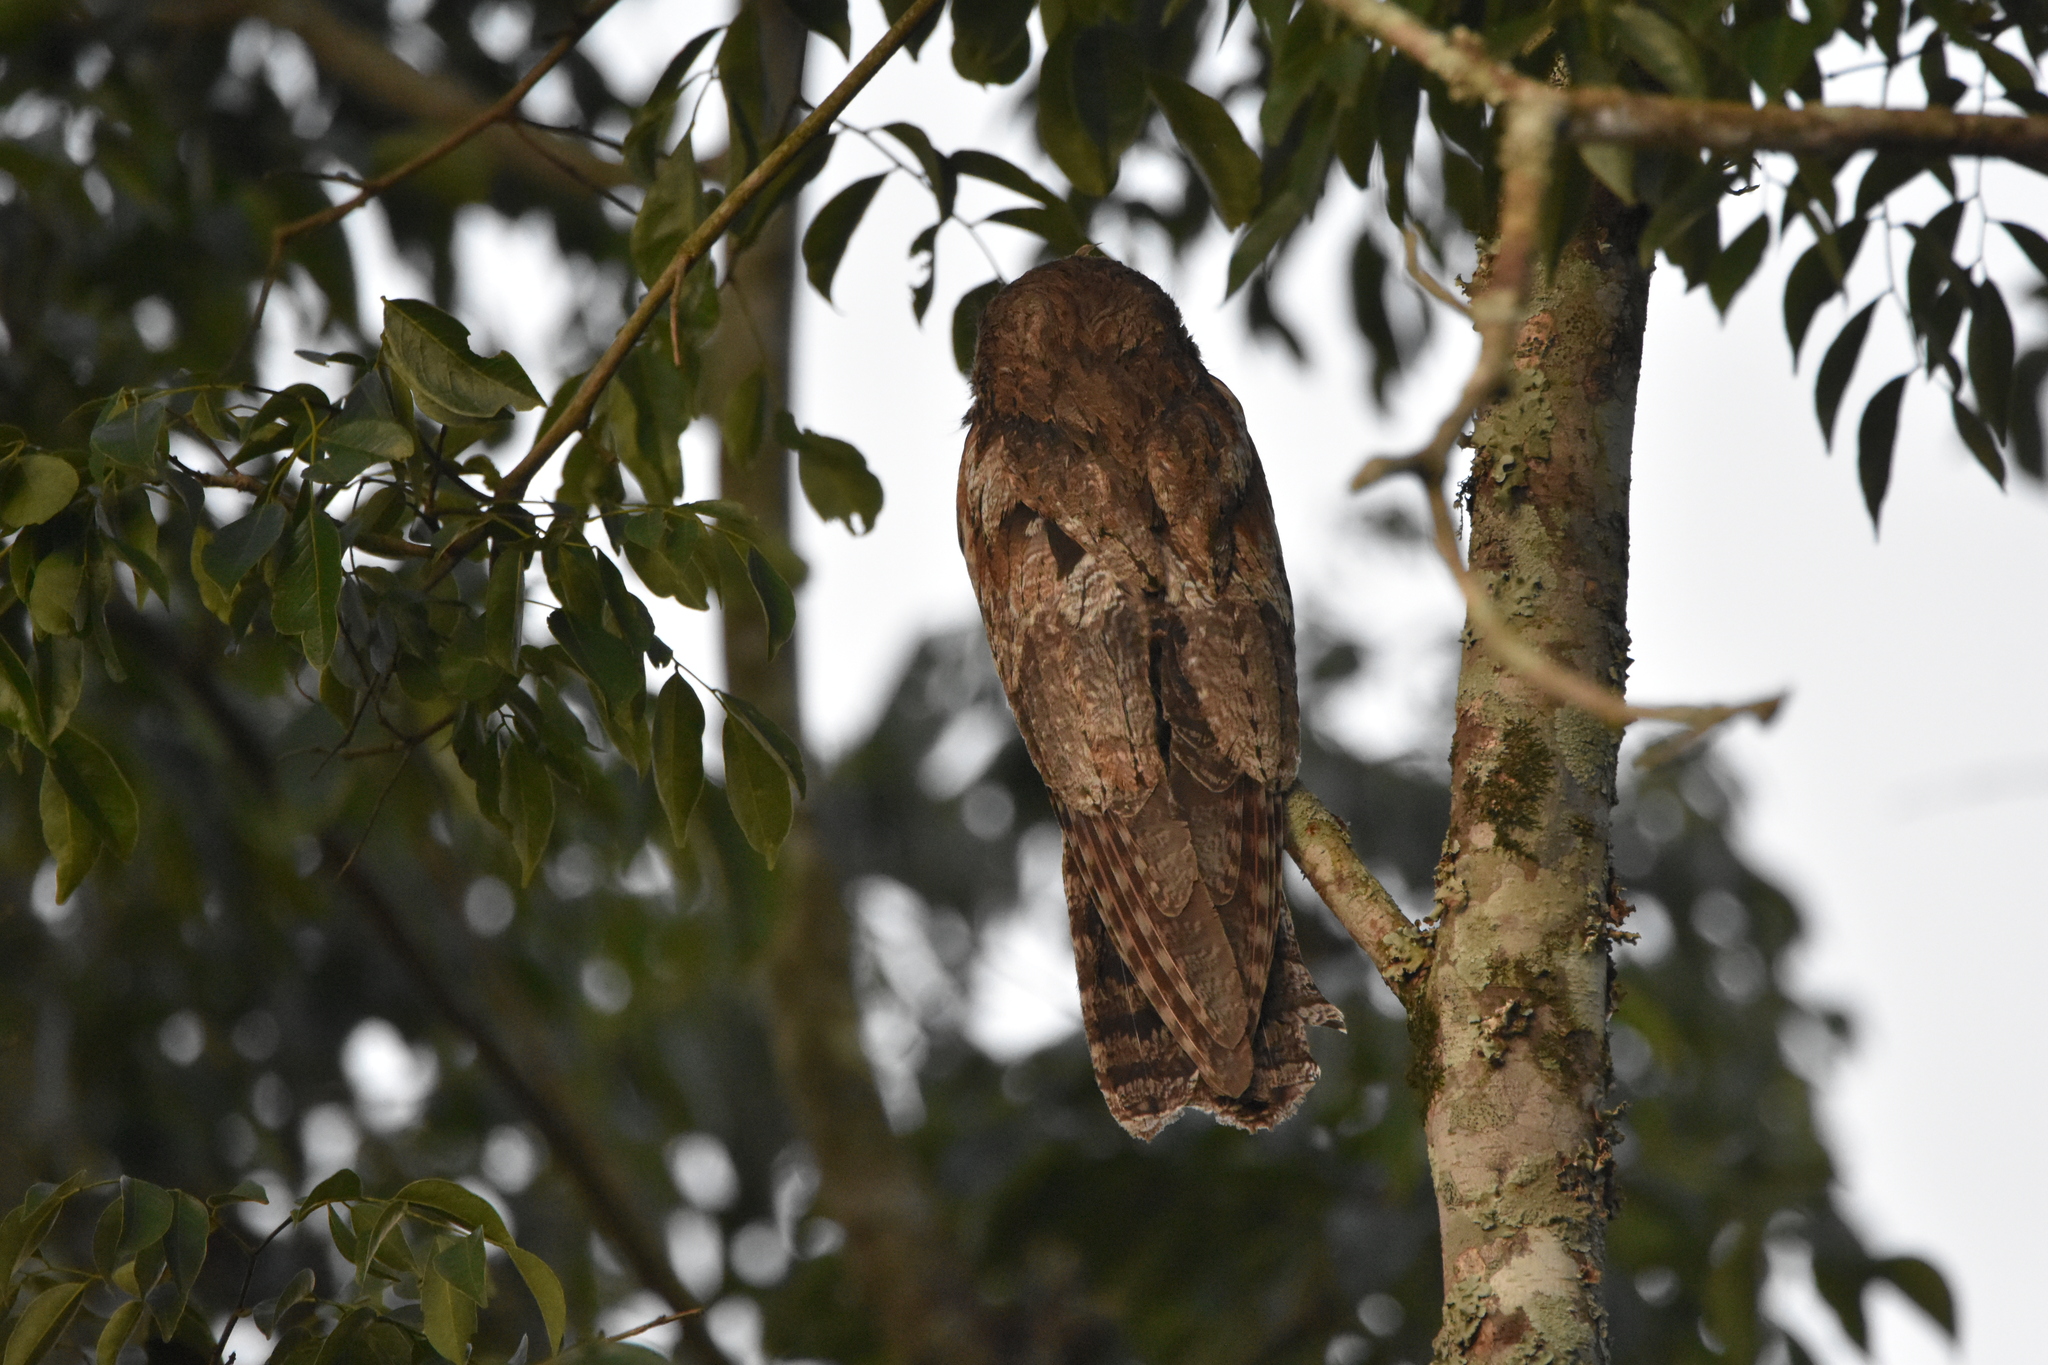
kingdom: Animalia
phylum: Chordata
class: Aves
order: Nyctibiiformes
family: Nyctibiidae
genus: Nyctibius
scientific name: Nyctibius griseus
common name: Common potoo
